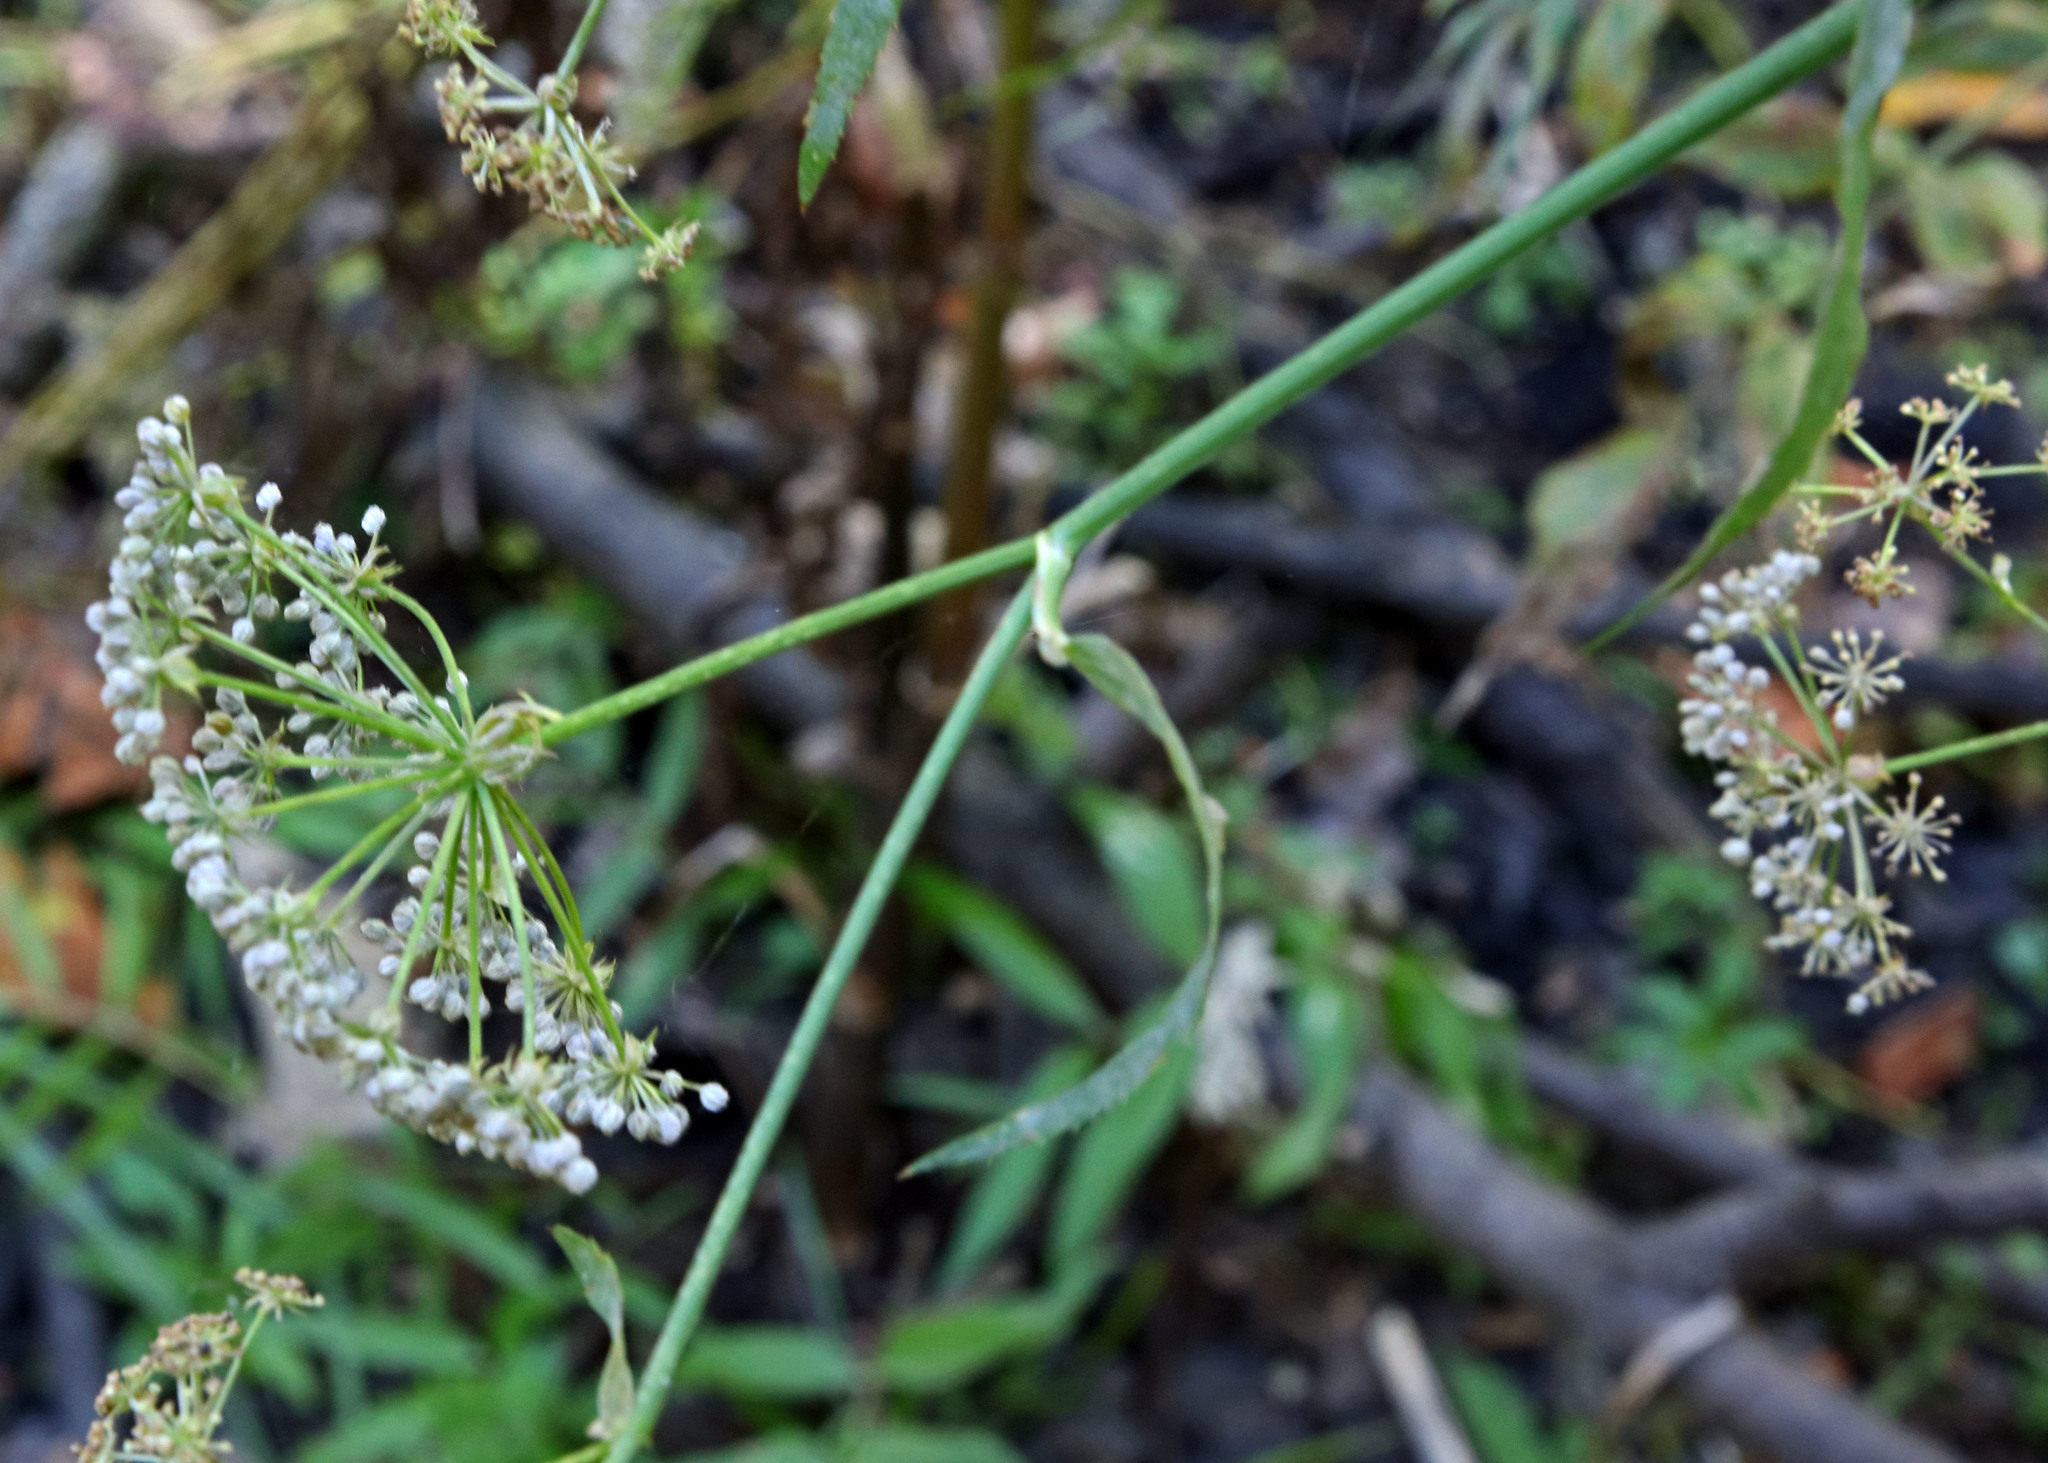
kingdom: Plantae
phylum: Tracheophyta
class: Magnoliopsida
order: Apiales
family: Apiaceae
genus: Sium
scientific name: Sium suave
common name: Hemlock water-parsnip
